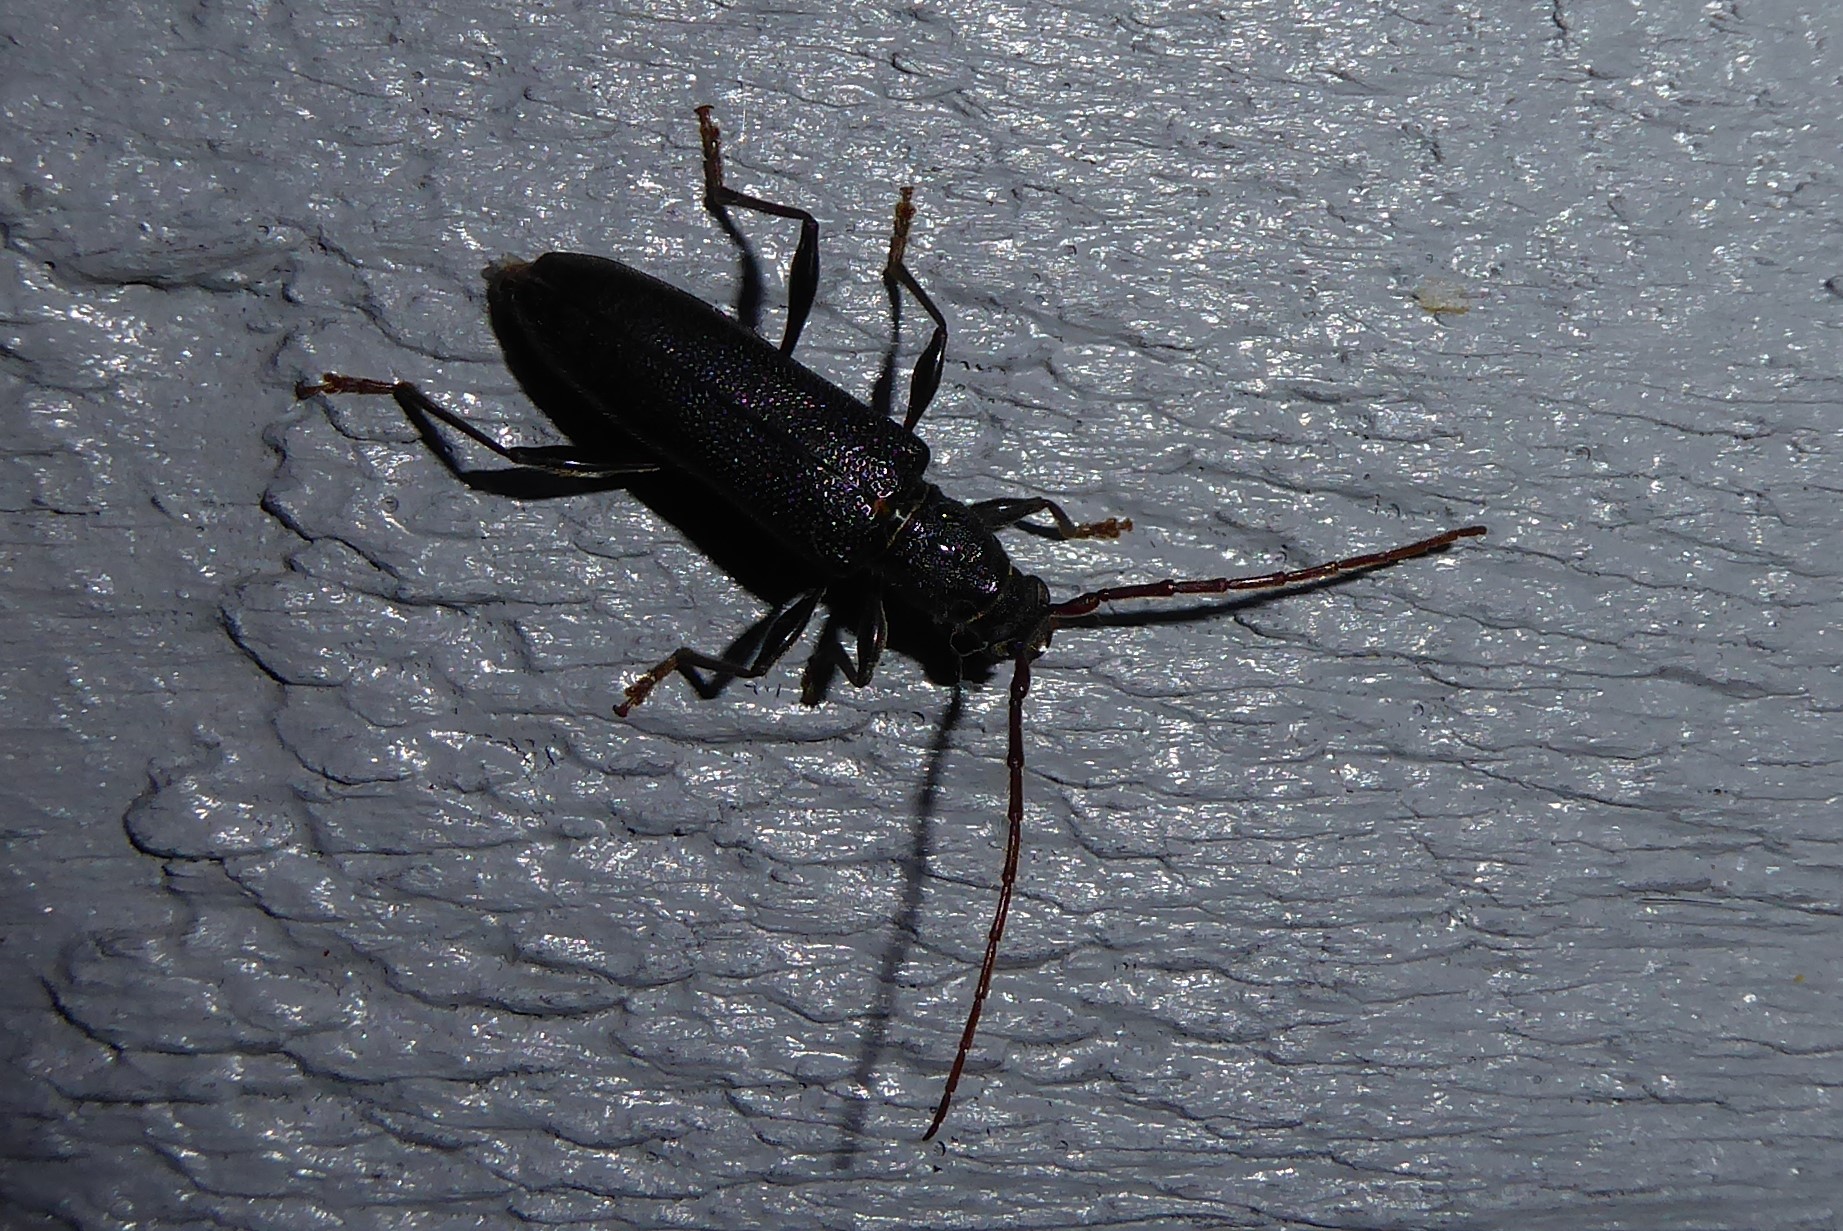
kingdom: Animalia
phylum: Arthropoda
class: Insecta
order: Coleoptera
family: Cerambycidae
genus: Callidiopis
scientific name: Callidiopis scutellaris
